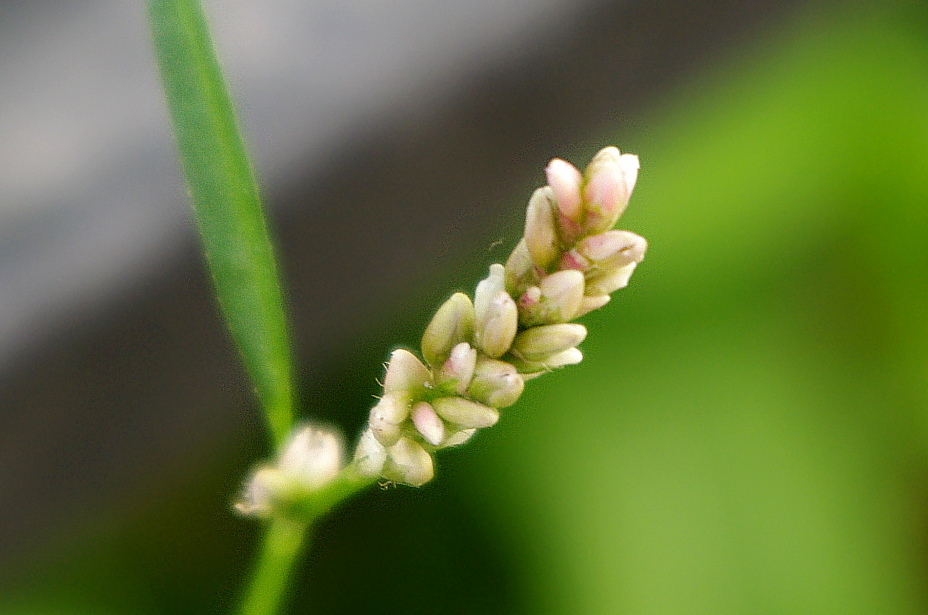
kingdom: Plantae
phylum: Tracheophyta
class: Magnoliopsida
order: Caryophyllales
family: Polygonaceae
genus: Persicaria
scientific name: Persicaria maculosa
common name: Redshank
